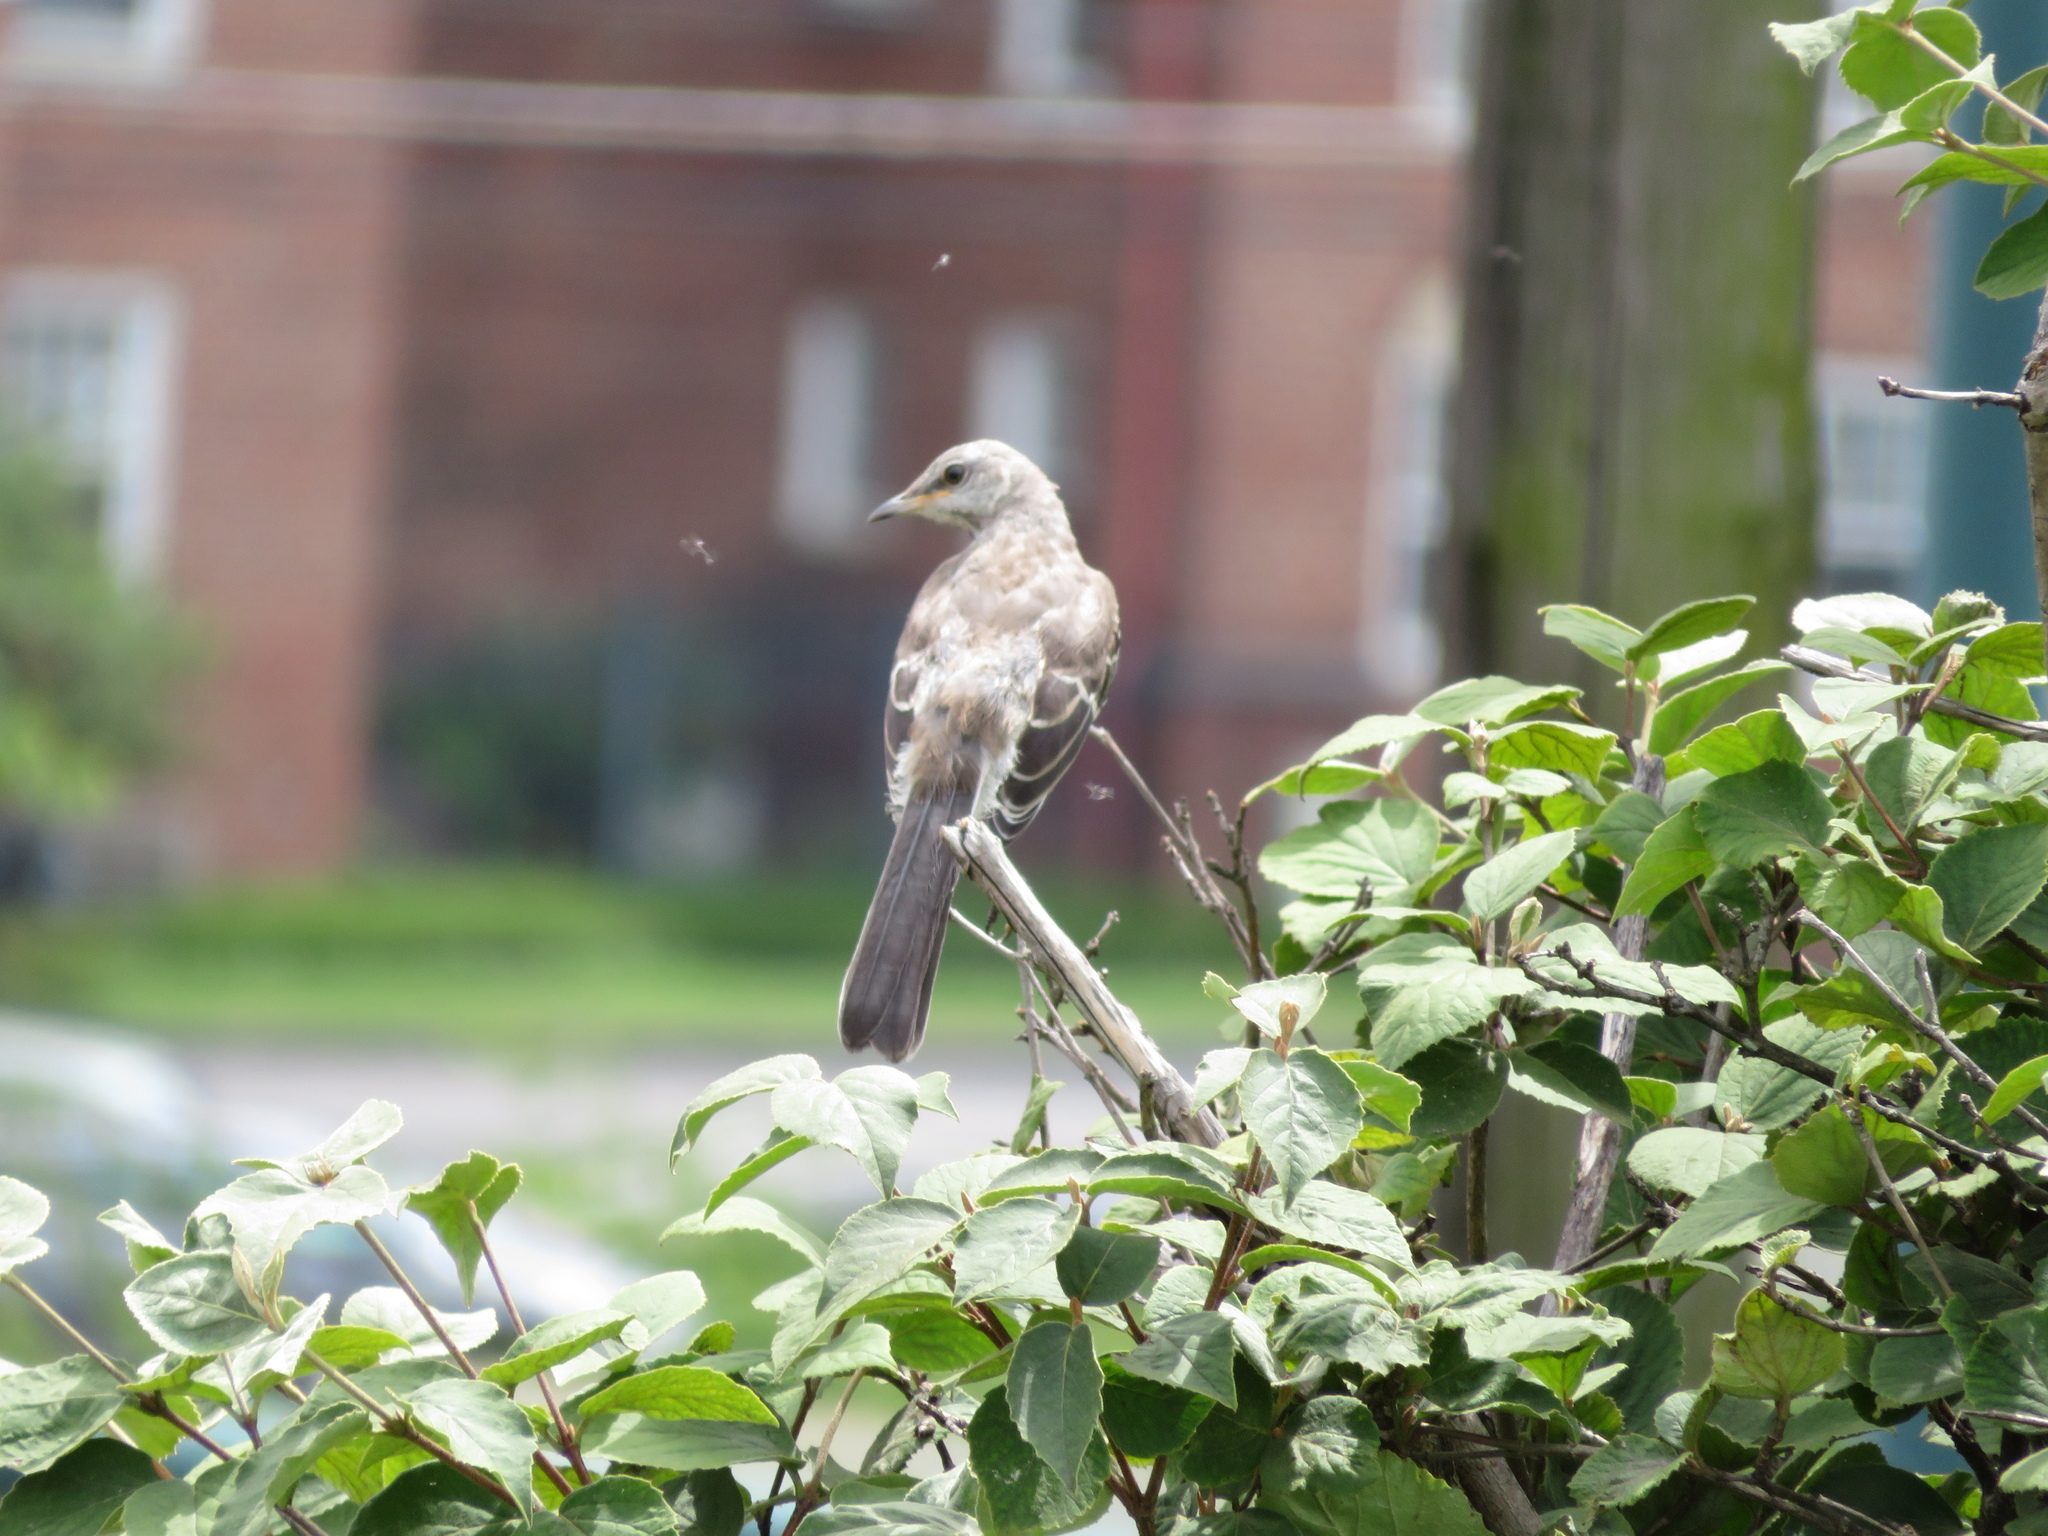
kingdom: Animalia
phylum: Chordata
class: Aves
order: Passeriformes
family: Mimidae
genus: Mimus
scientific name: Mimus polyglottos
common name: Northern mockingbird
